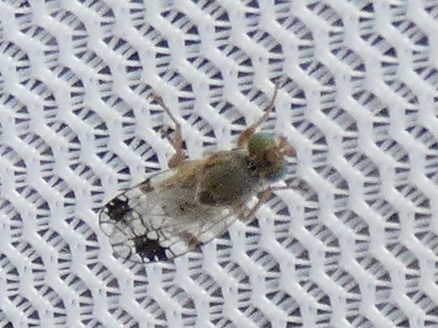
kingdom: Animalia
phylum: Arthropoda
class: Insecta
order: Diptera
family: Tephritidae
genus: Tephritis
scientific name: Tephritis cometa
